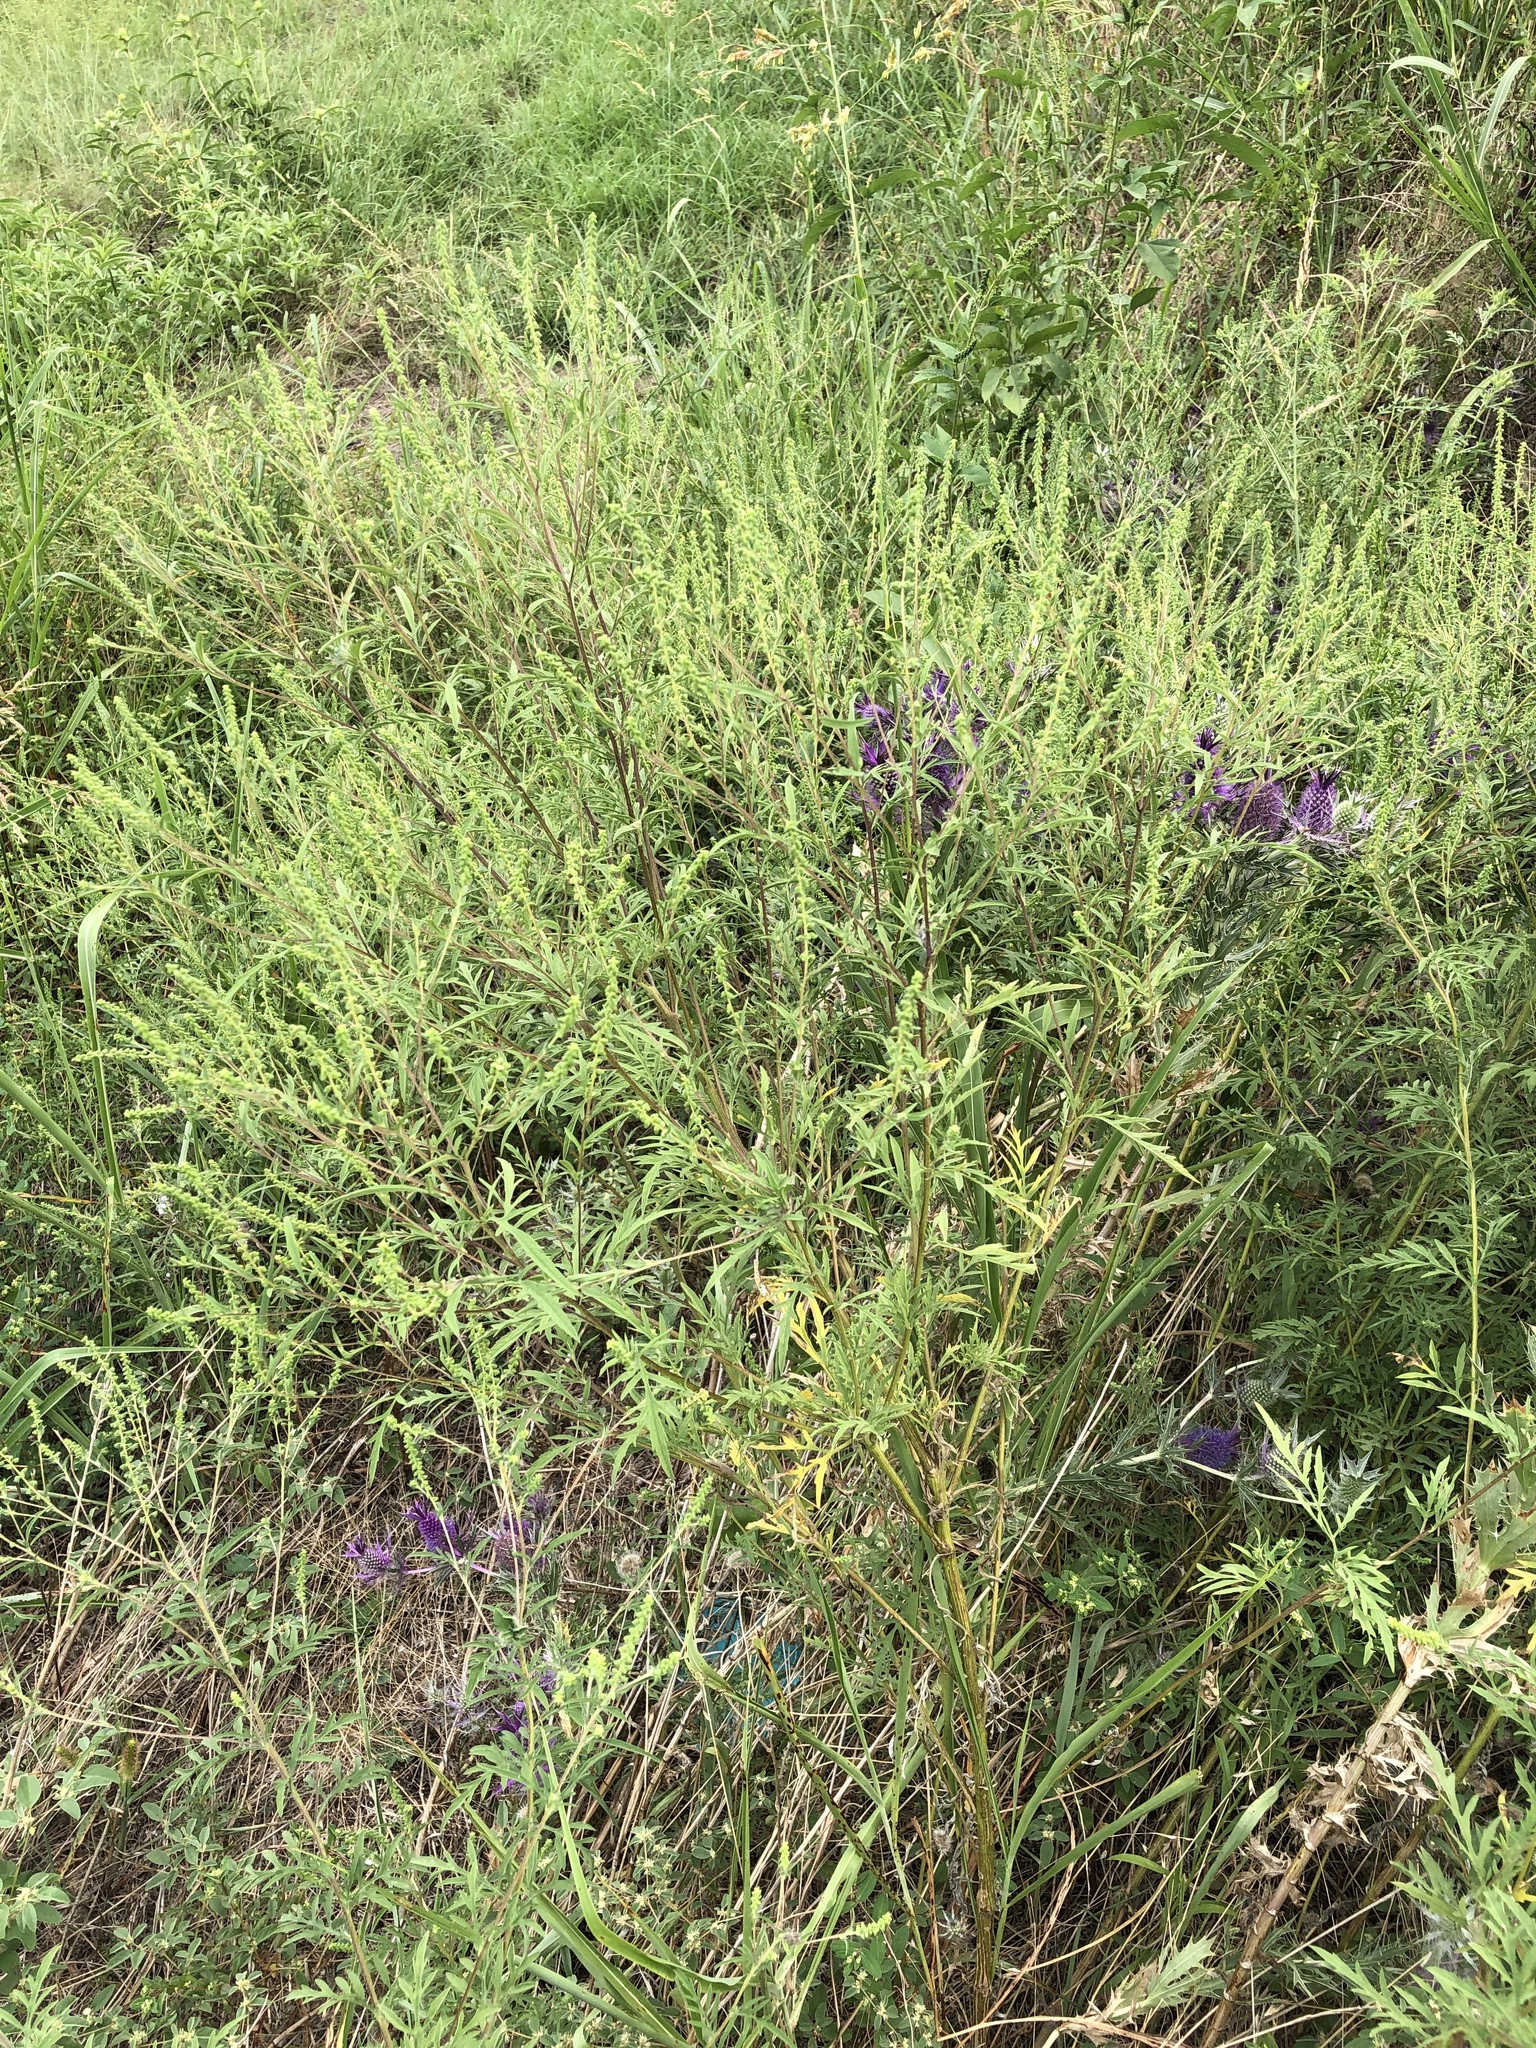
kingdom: Plantae
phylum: Tracheophyta
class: Magnoliopsida
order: Asterales
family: Asteraceae
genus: Ambrosia
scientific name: Ambrosia artemisiifolia
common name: Annual ragweed
